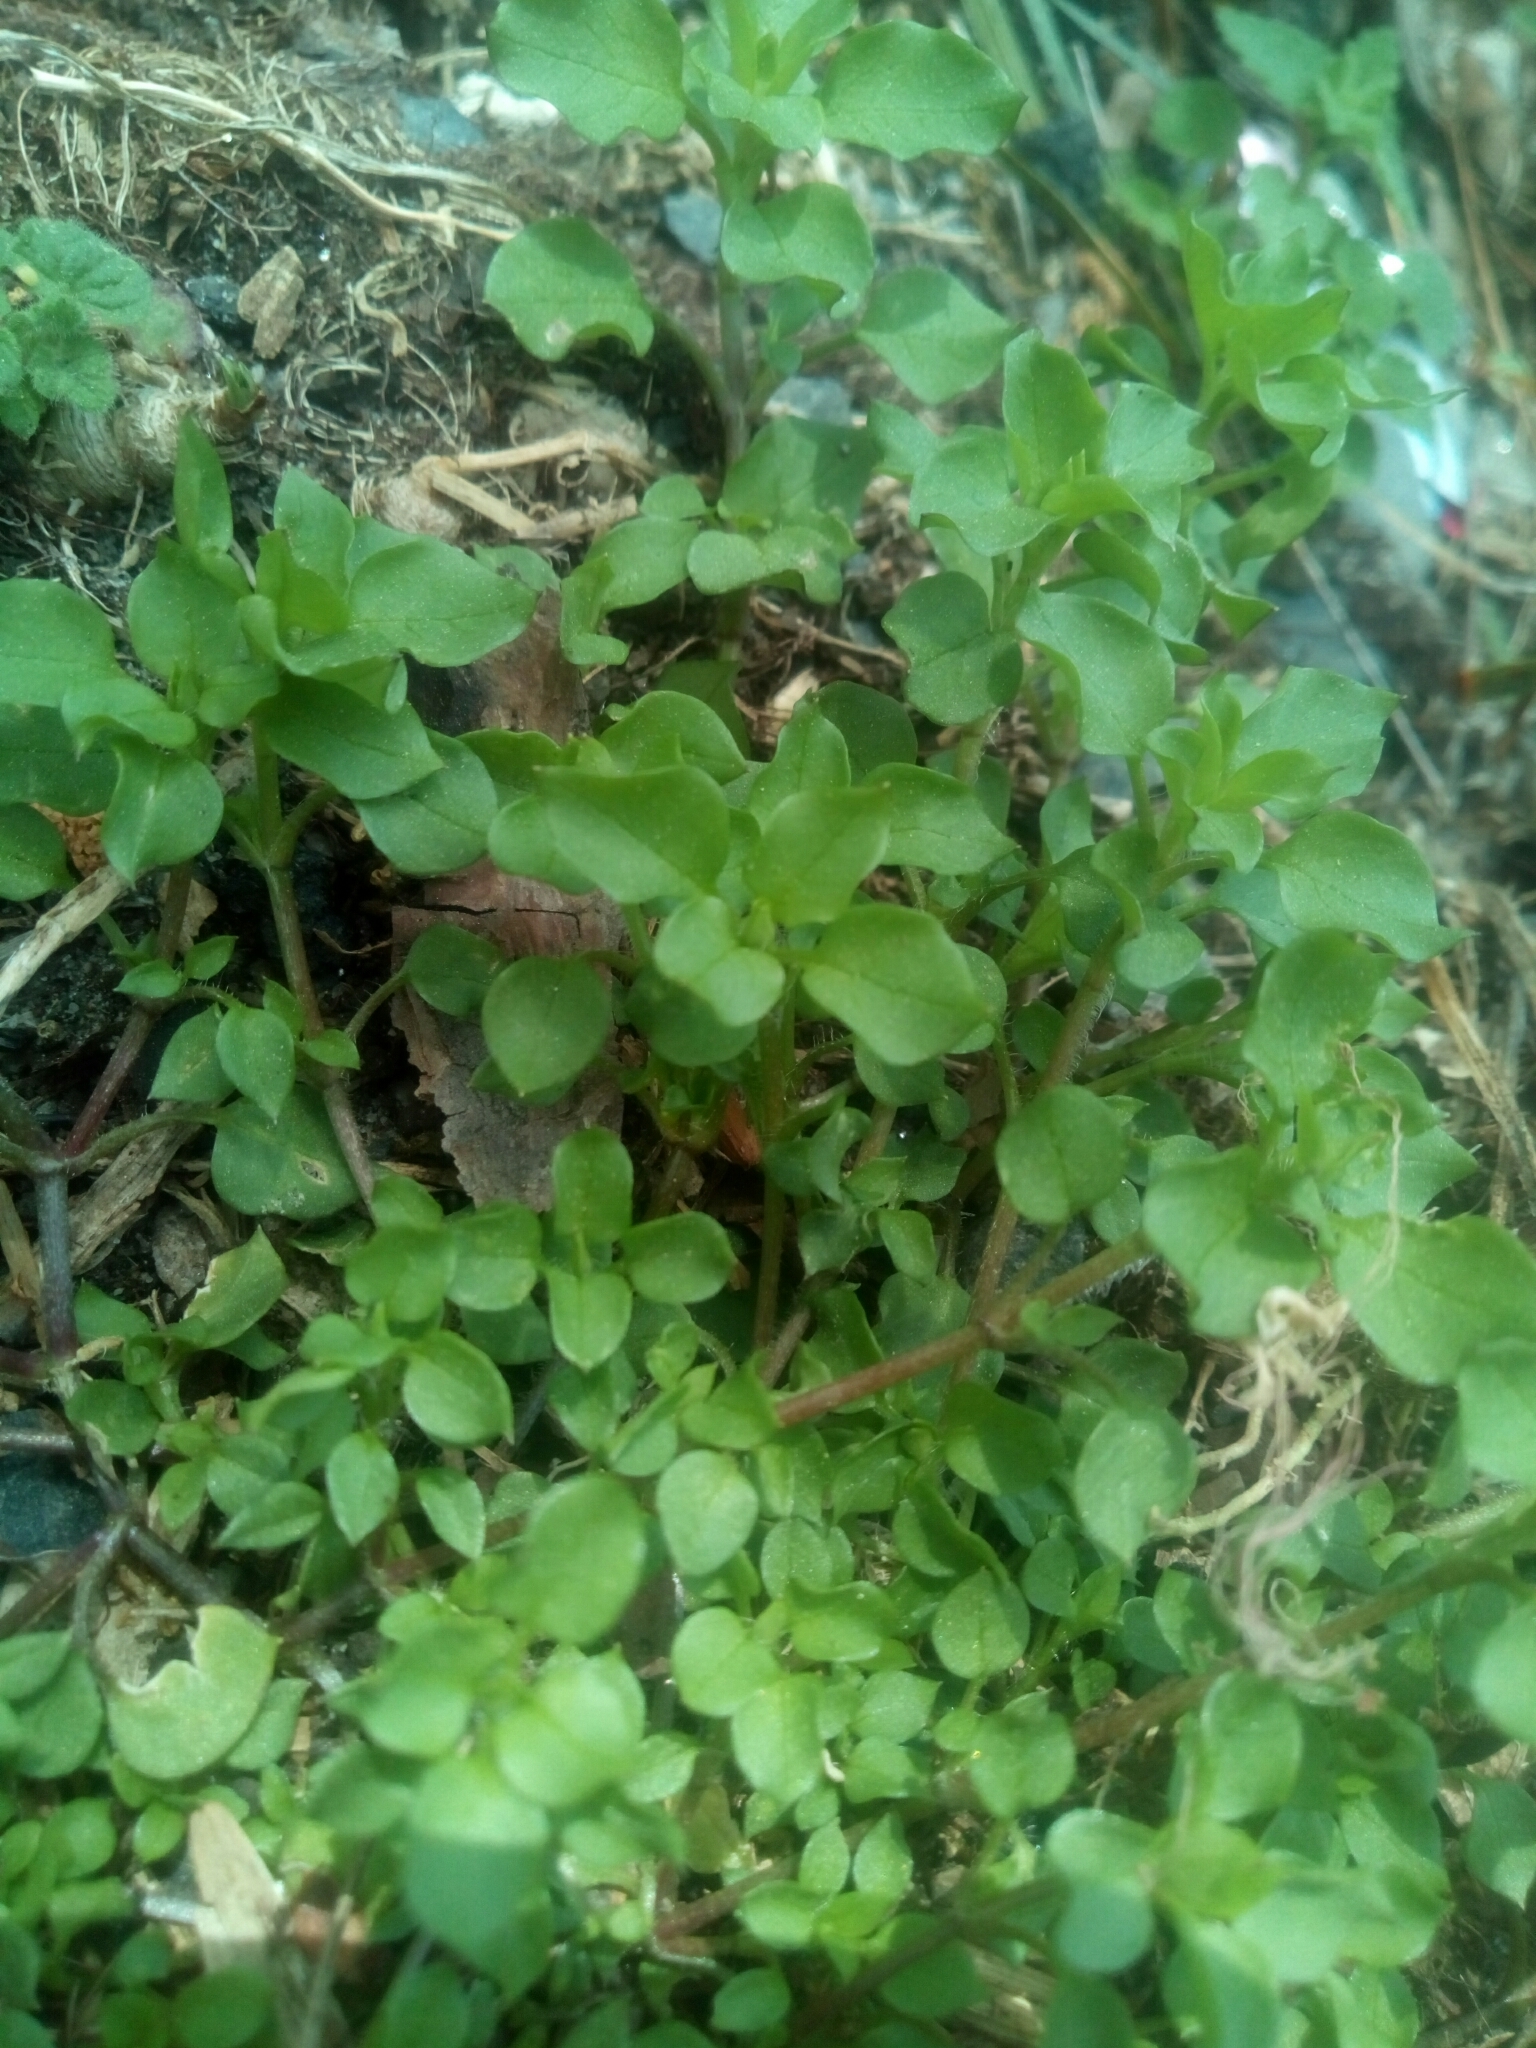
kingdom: Plantae
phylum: Tracheophyta
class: Magnoliopsida
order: Caryophyllales
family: Caryophyllaceae
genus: Stellaria
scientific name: Stellaria media
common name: Common chickweed
